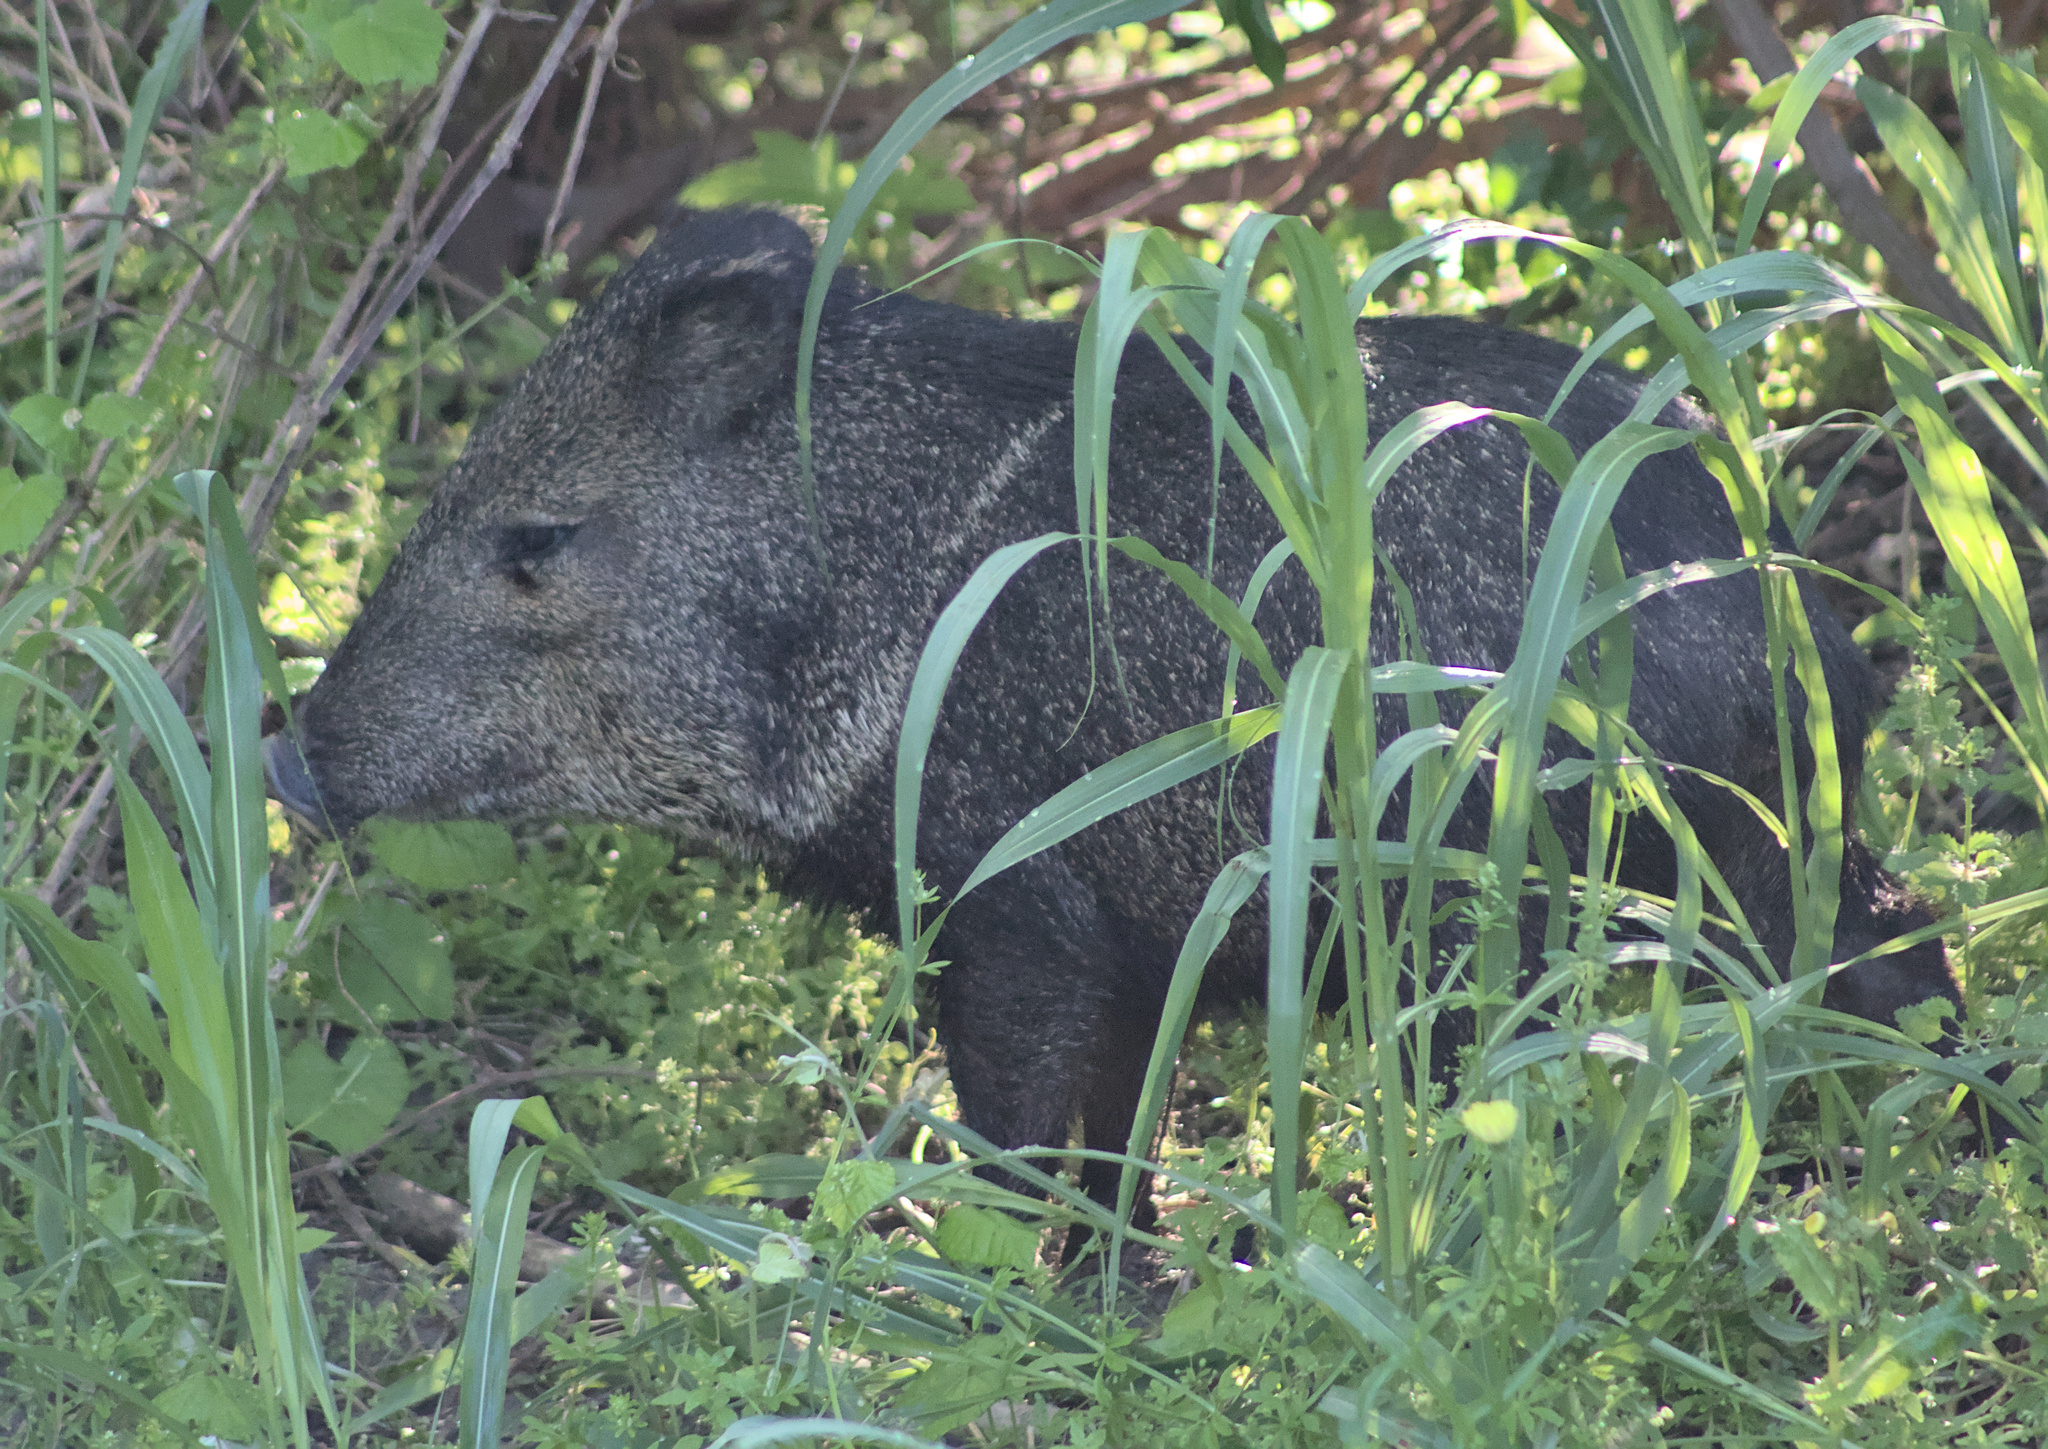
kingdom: Animalia
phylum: Chordata
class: Mammalia
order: Artiodactyla
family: Tayassuidae
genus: Pecari
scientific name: Pecari tajacu
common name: Collared peccary
